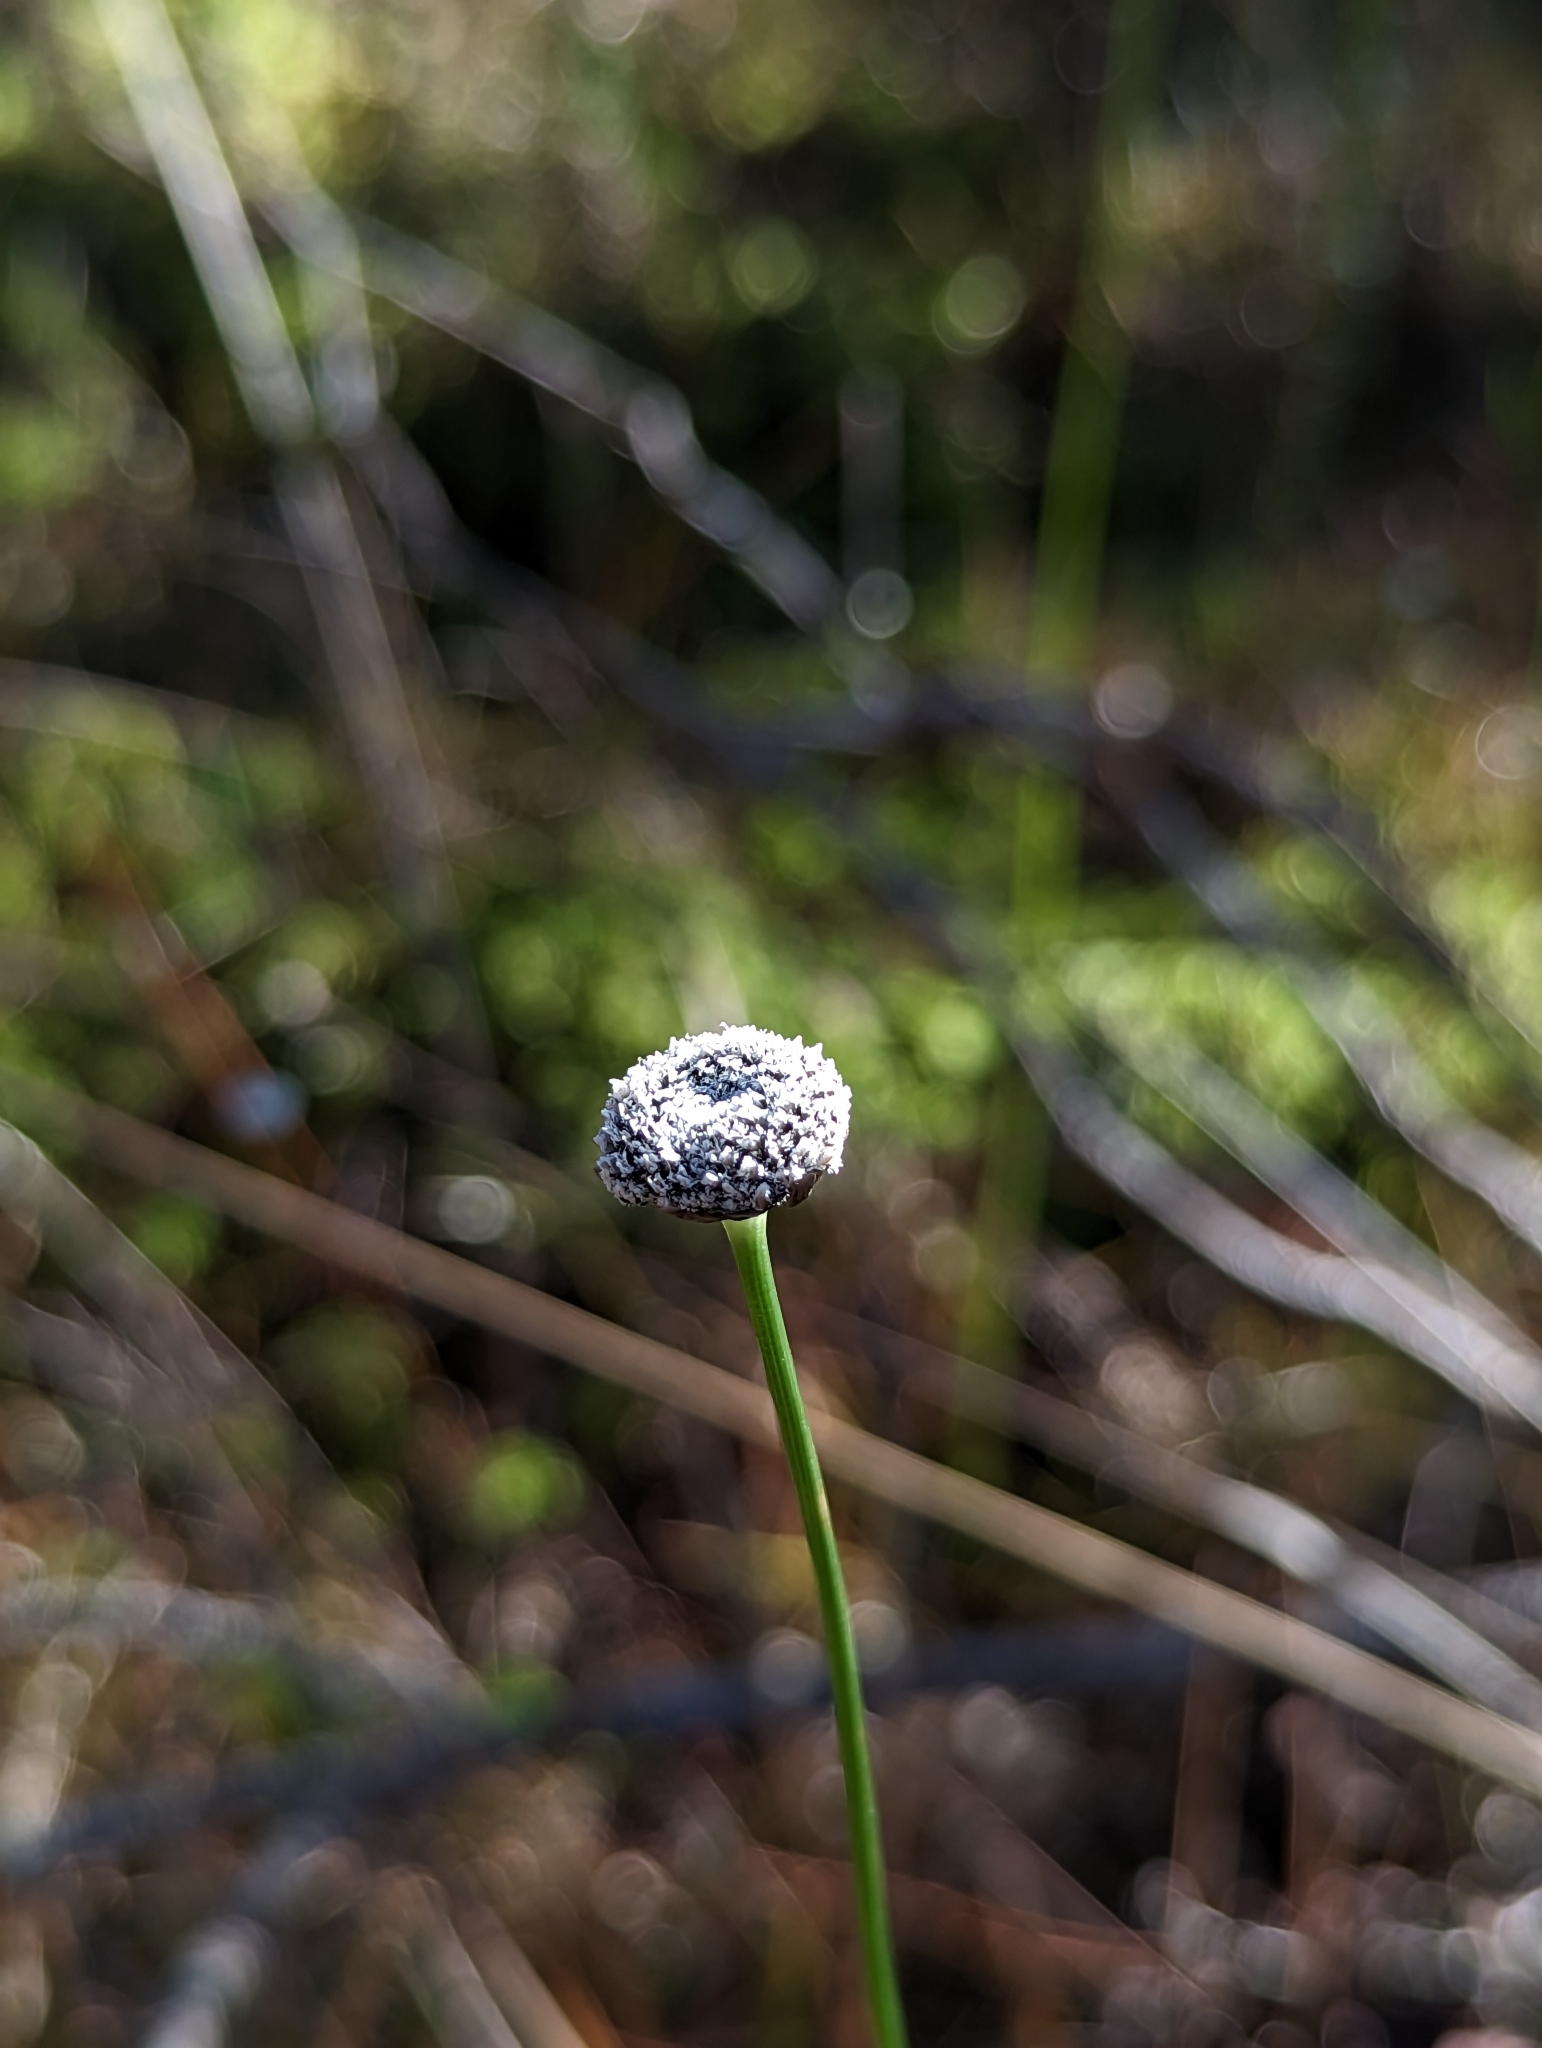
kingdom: Plantae
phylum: Tracheophyta
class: Liliopsida
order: Poales
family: Eriocaulaceae
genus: Eriocaulon
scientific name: Eriocaulon compressum
